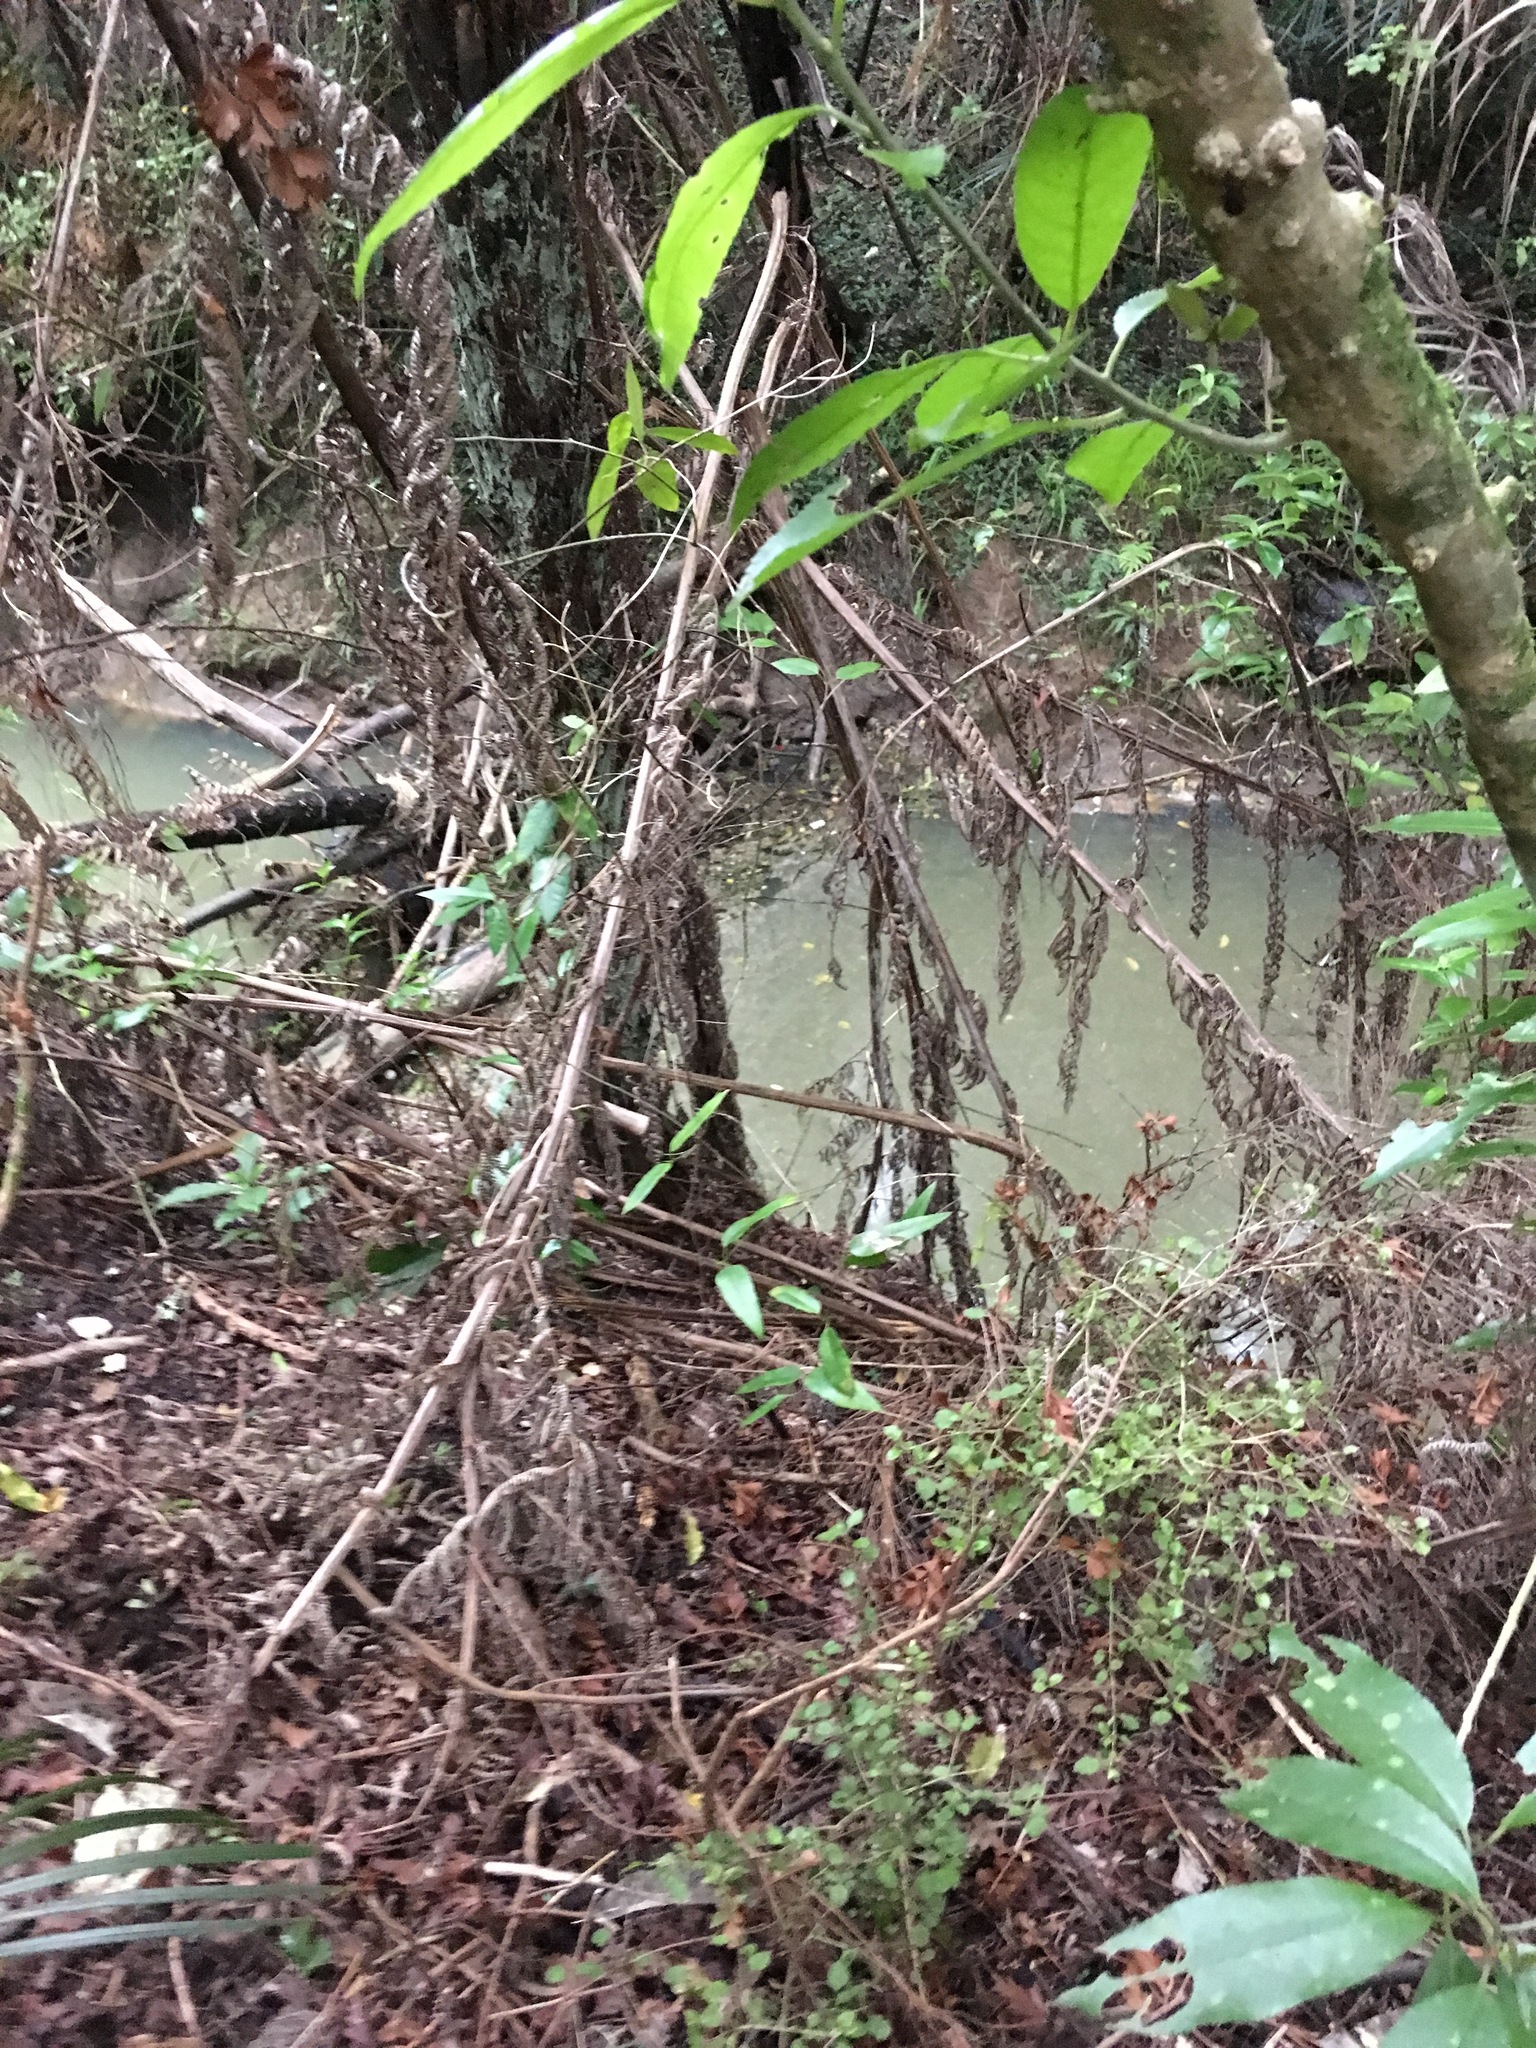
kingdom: Plantae
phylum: Tracheophyta
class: Magnoliopsida
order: Gentianales
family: Apocynaceae
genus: Parsonsia
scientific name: Parsonsia heterophylla
